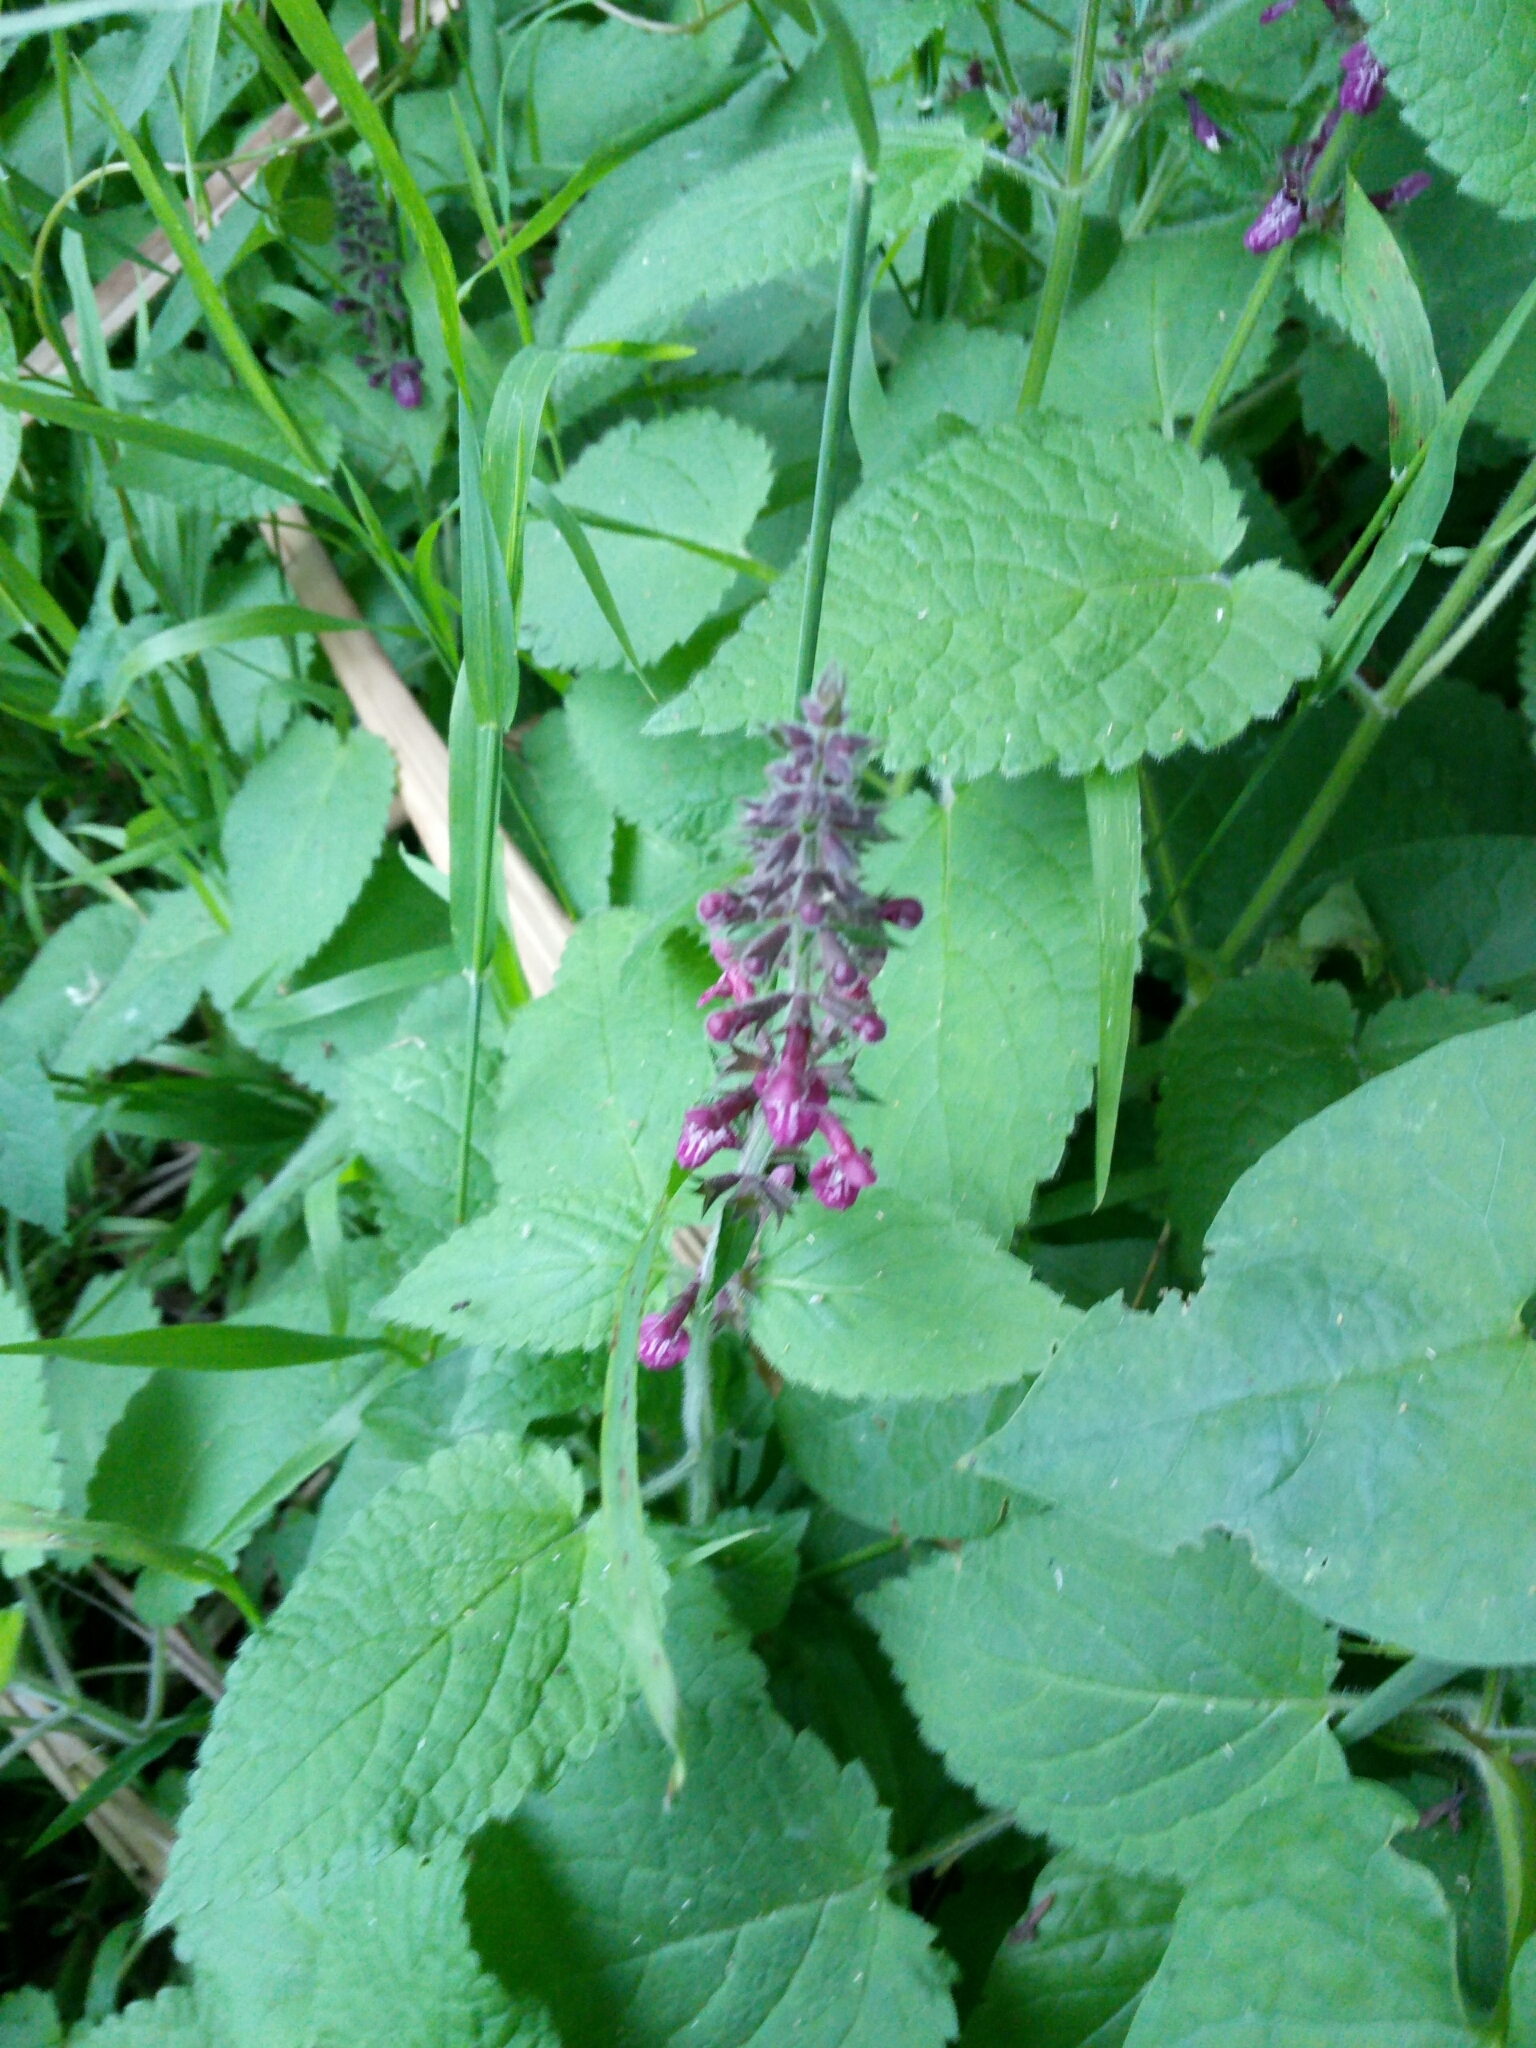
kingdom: Plantae
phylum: Tracheophyta
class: Magnoliopsida
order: Lamiales
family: Lamiaceae
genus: Stachys
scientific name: Stachys sylvatica
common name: Hedge woundwort
